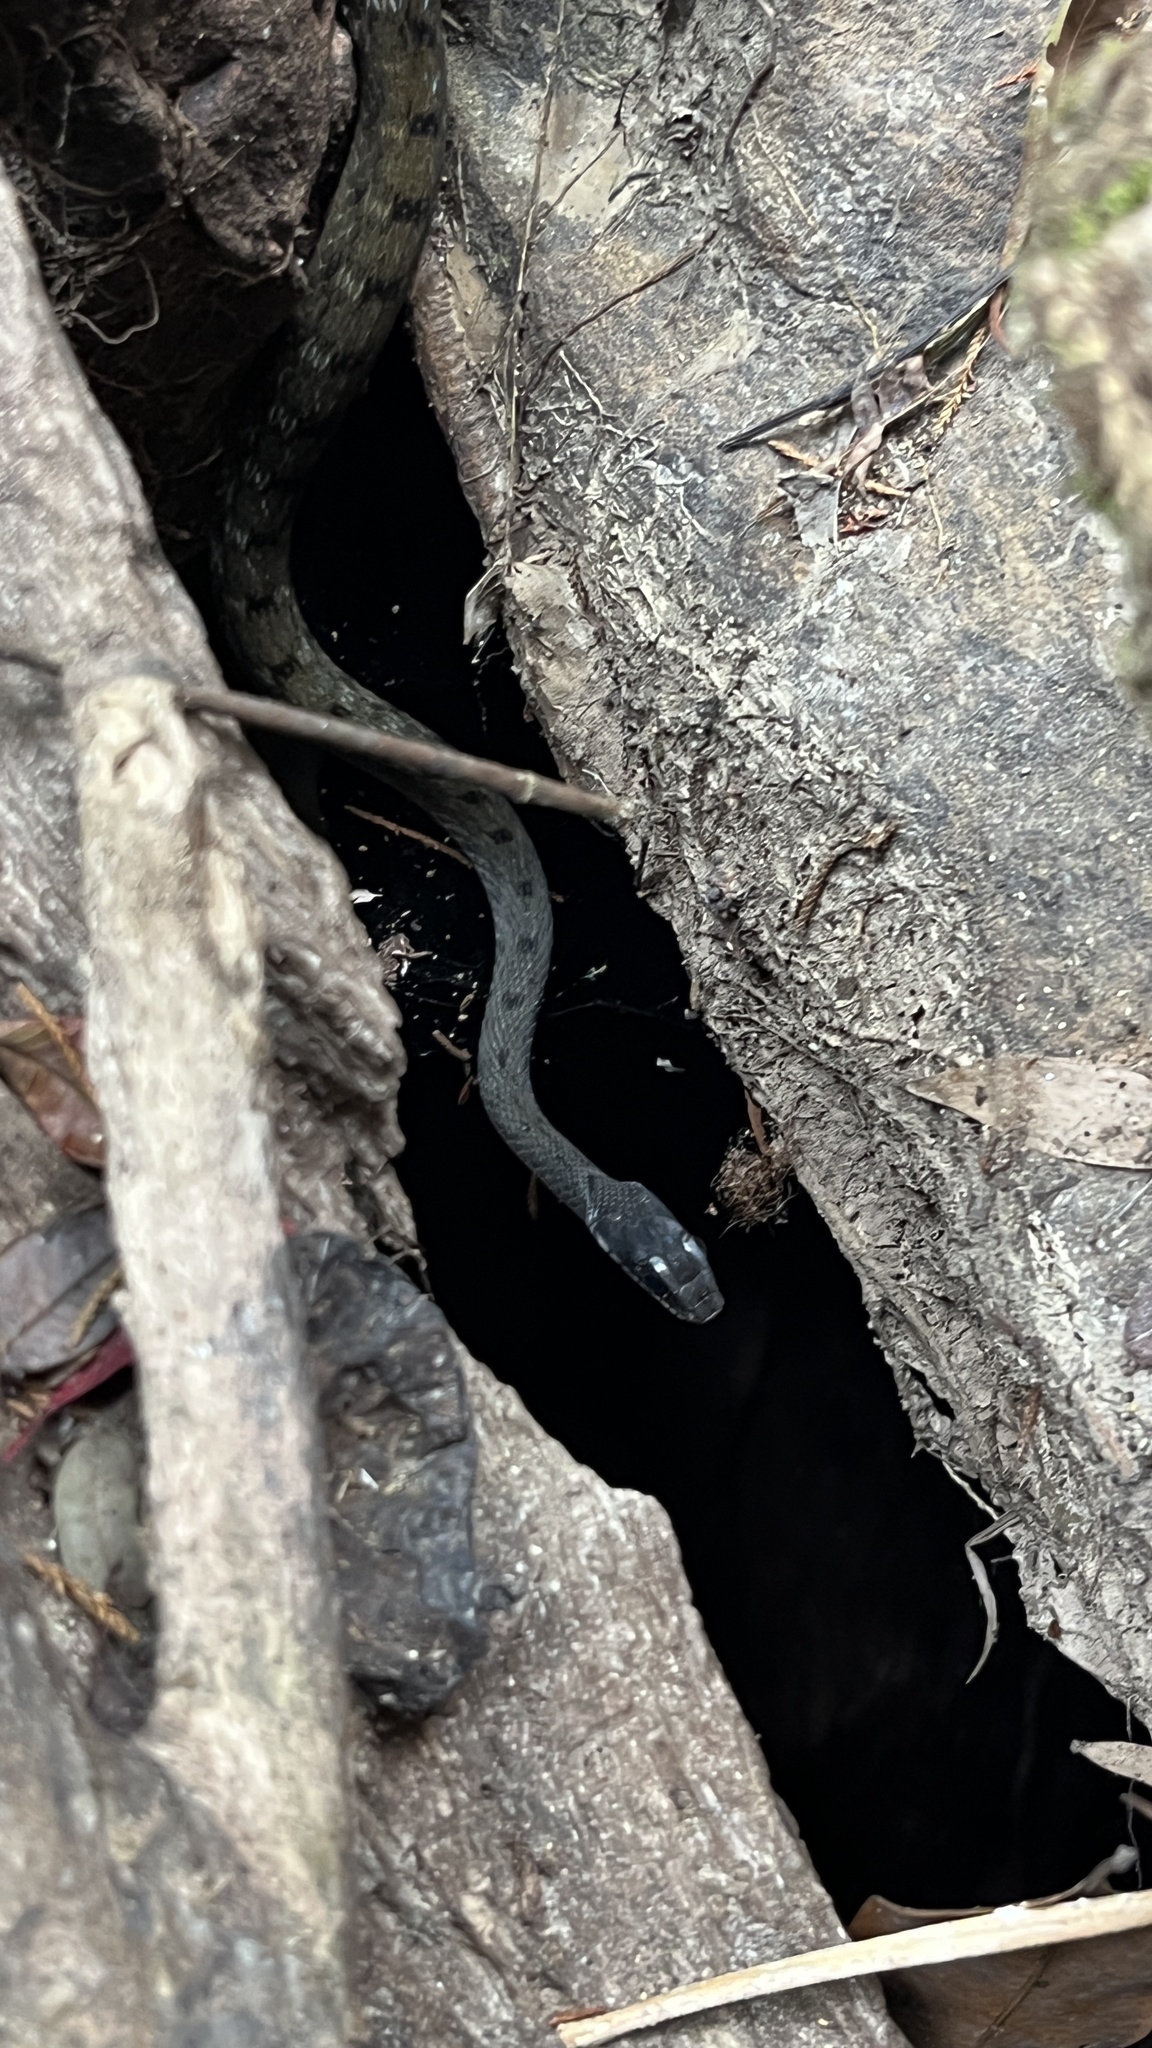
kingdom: Animalia
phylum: Chordata
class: Squamata
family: Colubridae
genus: Rhabdophis
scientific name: Rhabdophis chrysargos
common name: Specklebelly keelback
